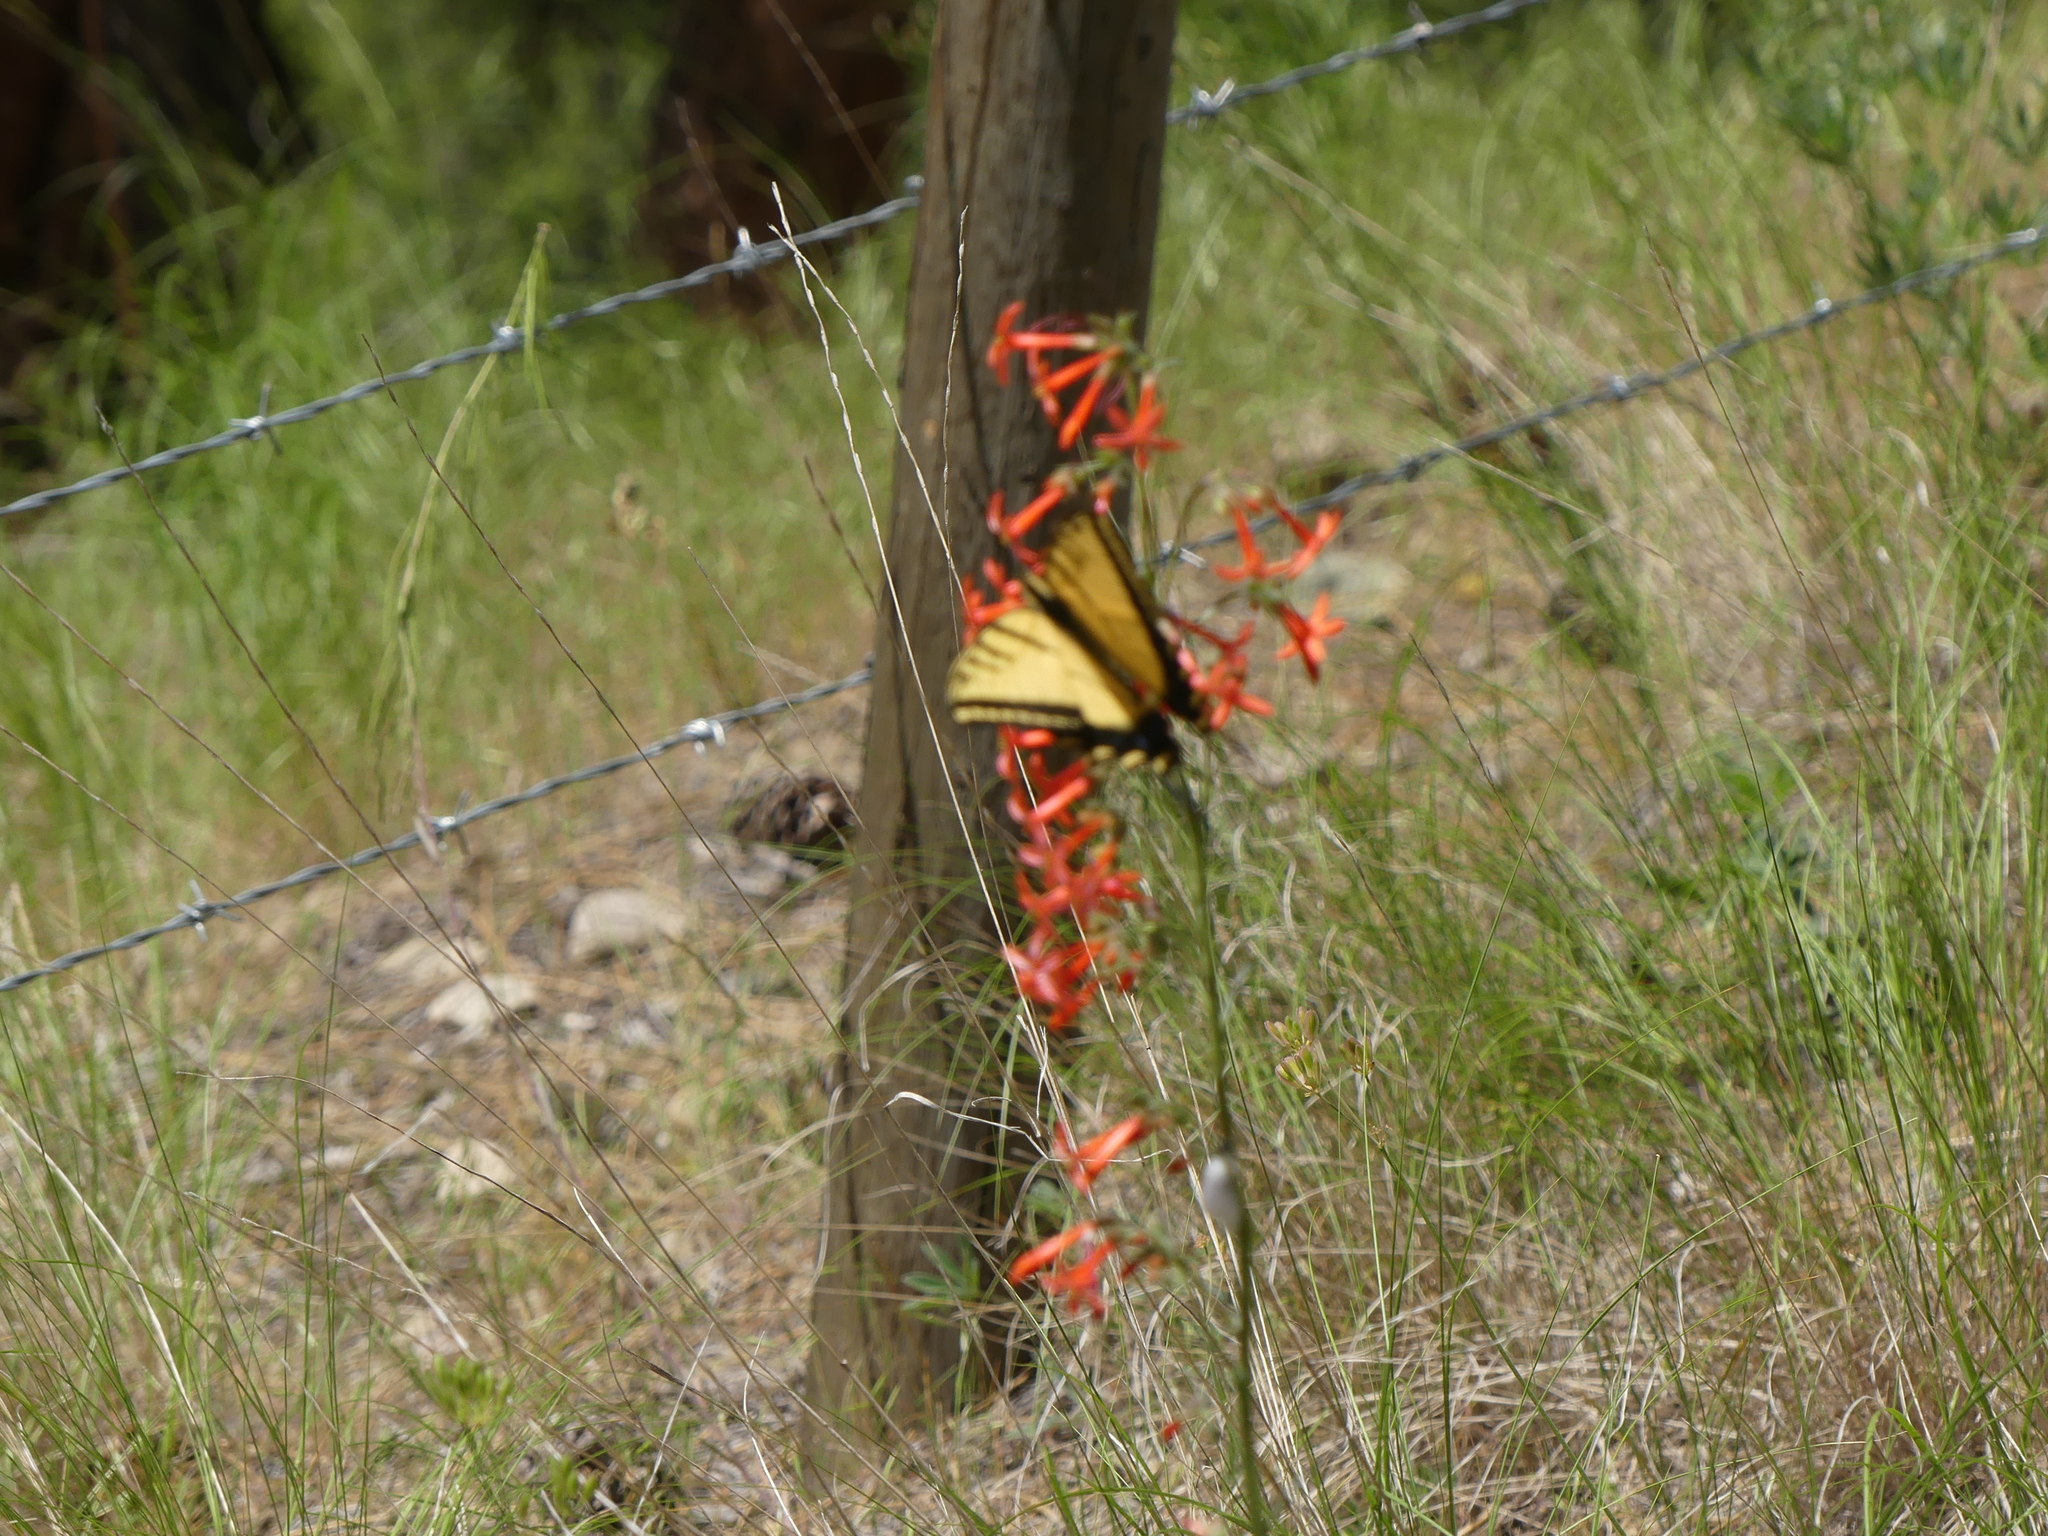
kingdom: Animalia
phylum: Arthropoda
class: Insecta
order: Lepidoptera
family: Papilionidae
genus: Papilio
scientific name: Papilio multicaudata
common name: Two-tailed tiger swallowtail
